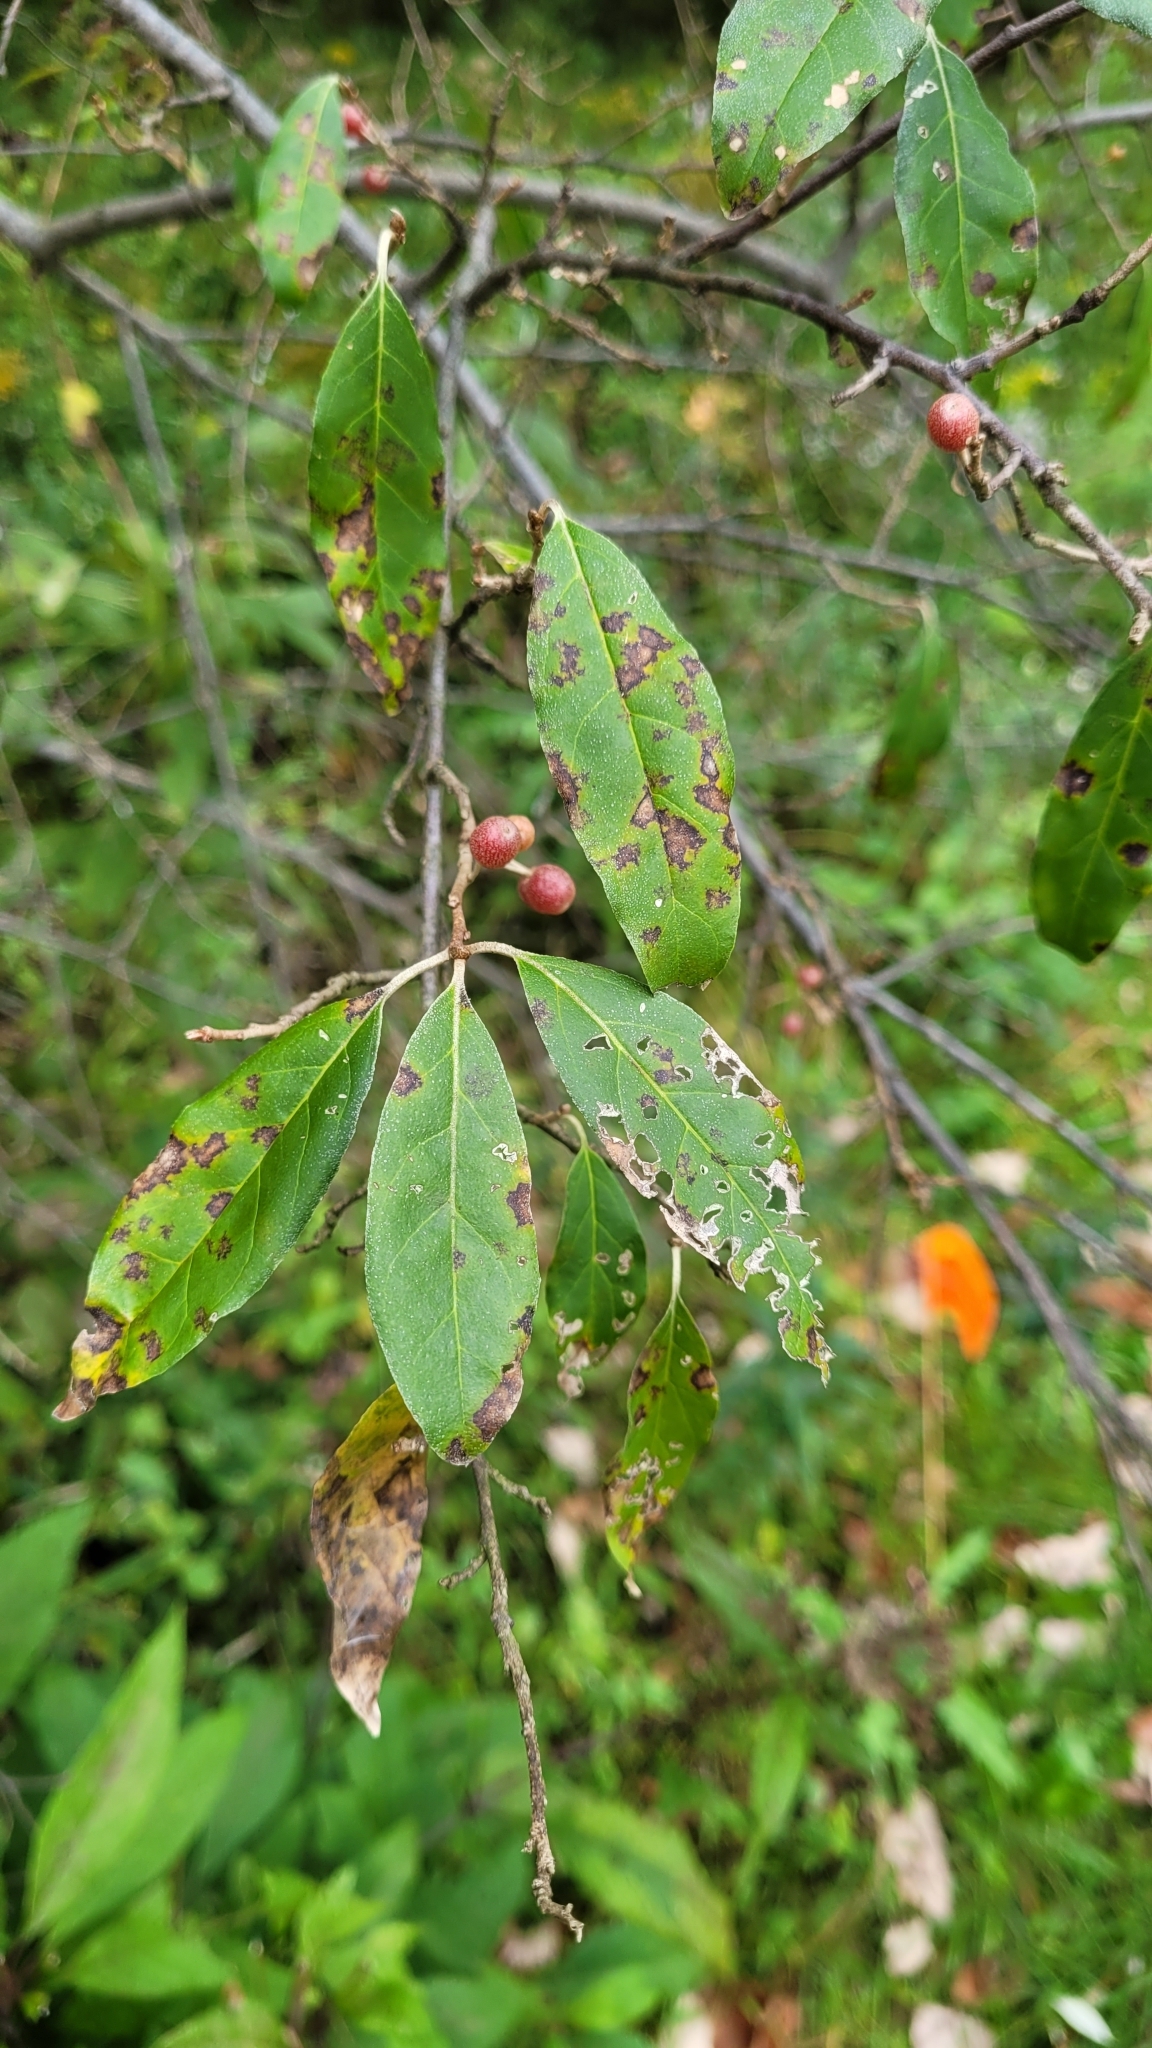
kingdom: Plantae
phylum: Tracheophyta
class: Magnoliopsida
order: Rosales
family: Elaeagnaceae
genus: Elaeagnus
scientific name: Elaeagnus umbellata
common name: Autumn olive
